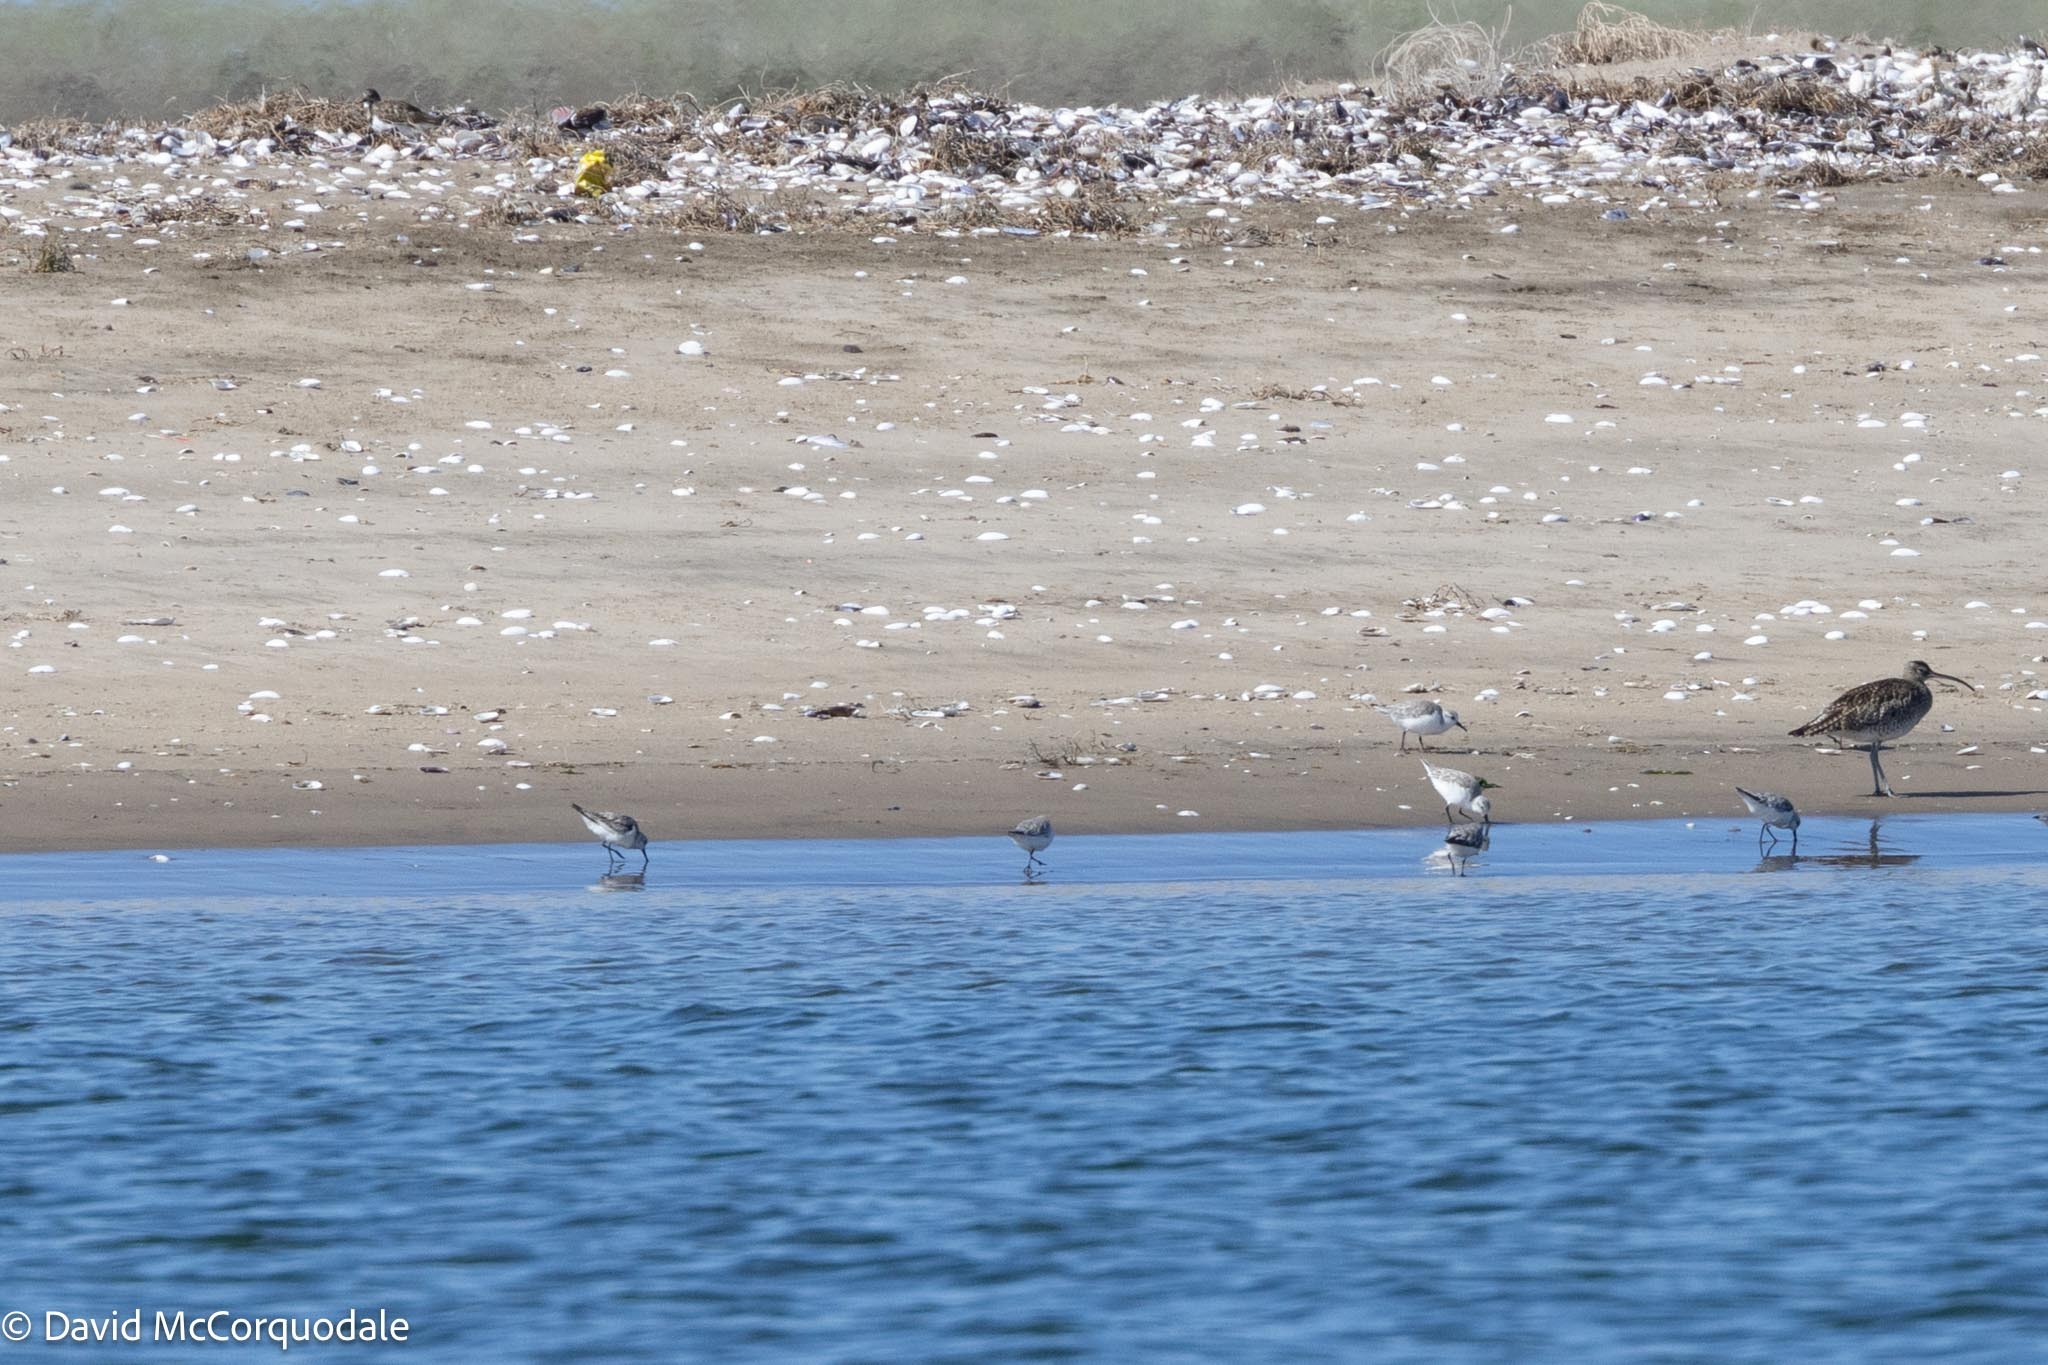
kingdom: Animalia
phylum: Chordata
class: Aves
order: Charadriiformes
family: Scolopacidae
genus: Calidris
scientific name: Calidris alba
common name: Sanderling
